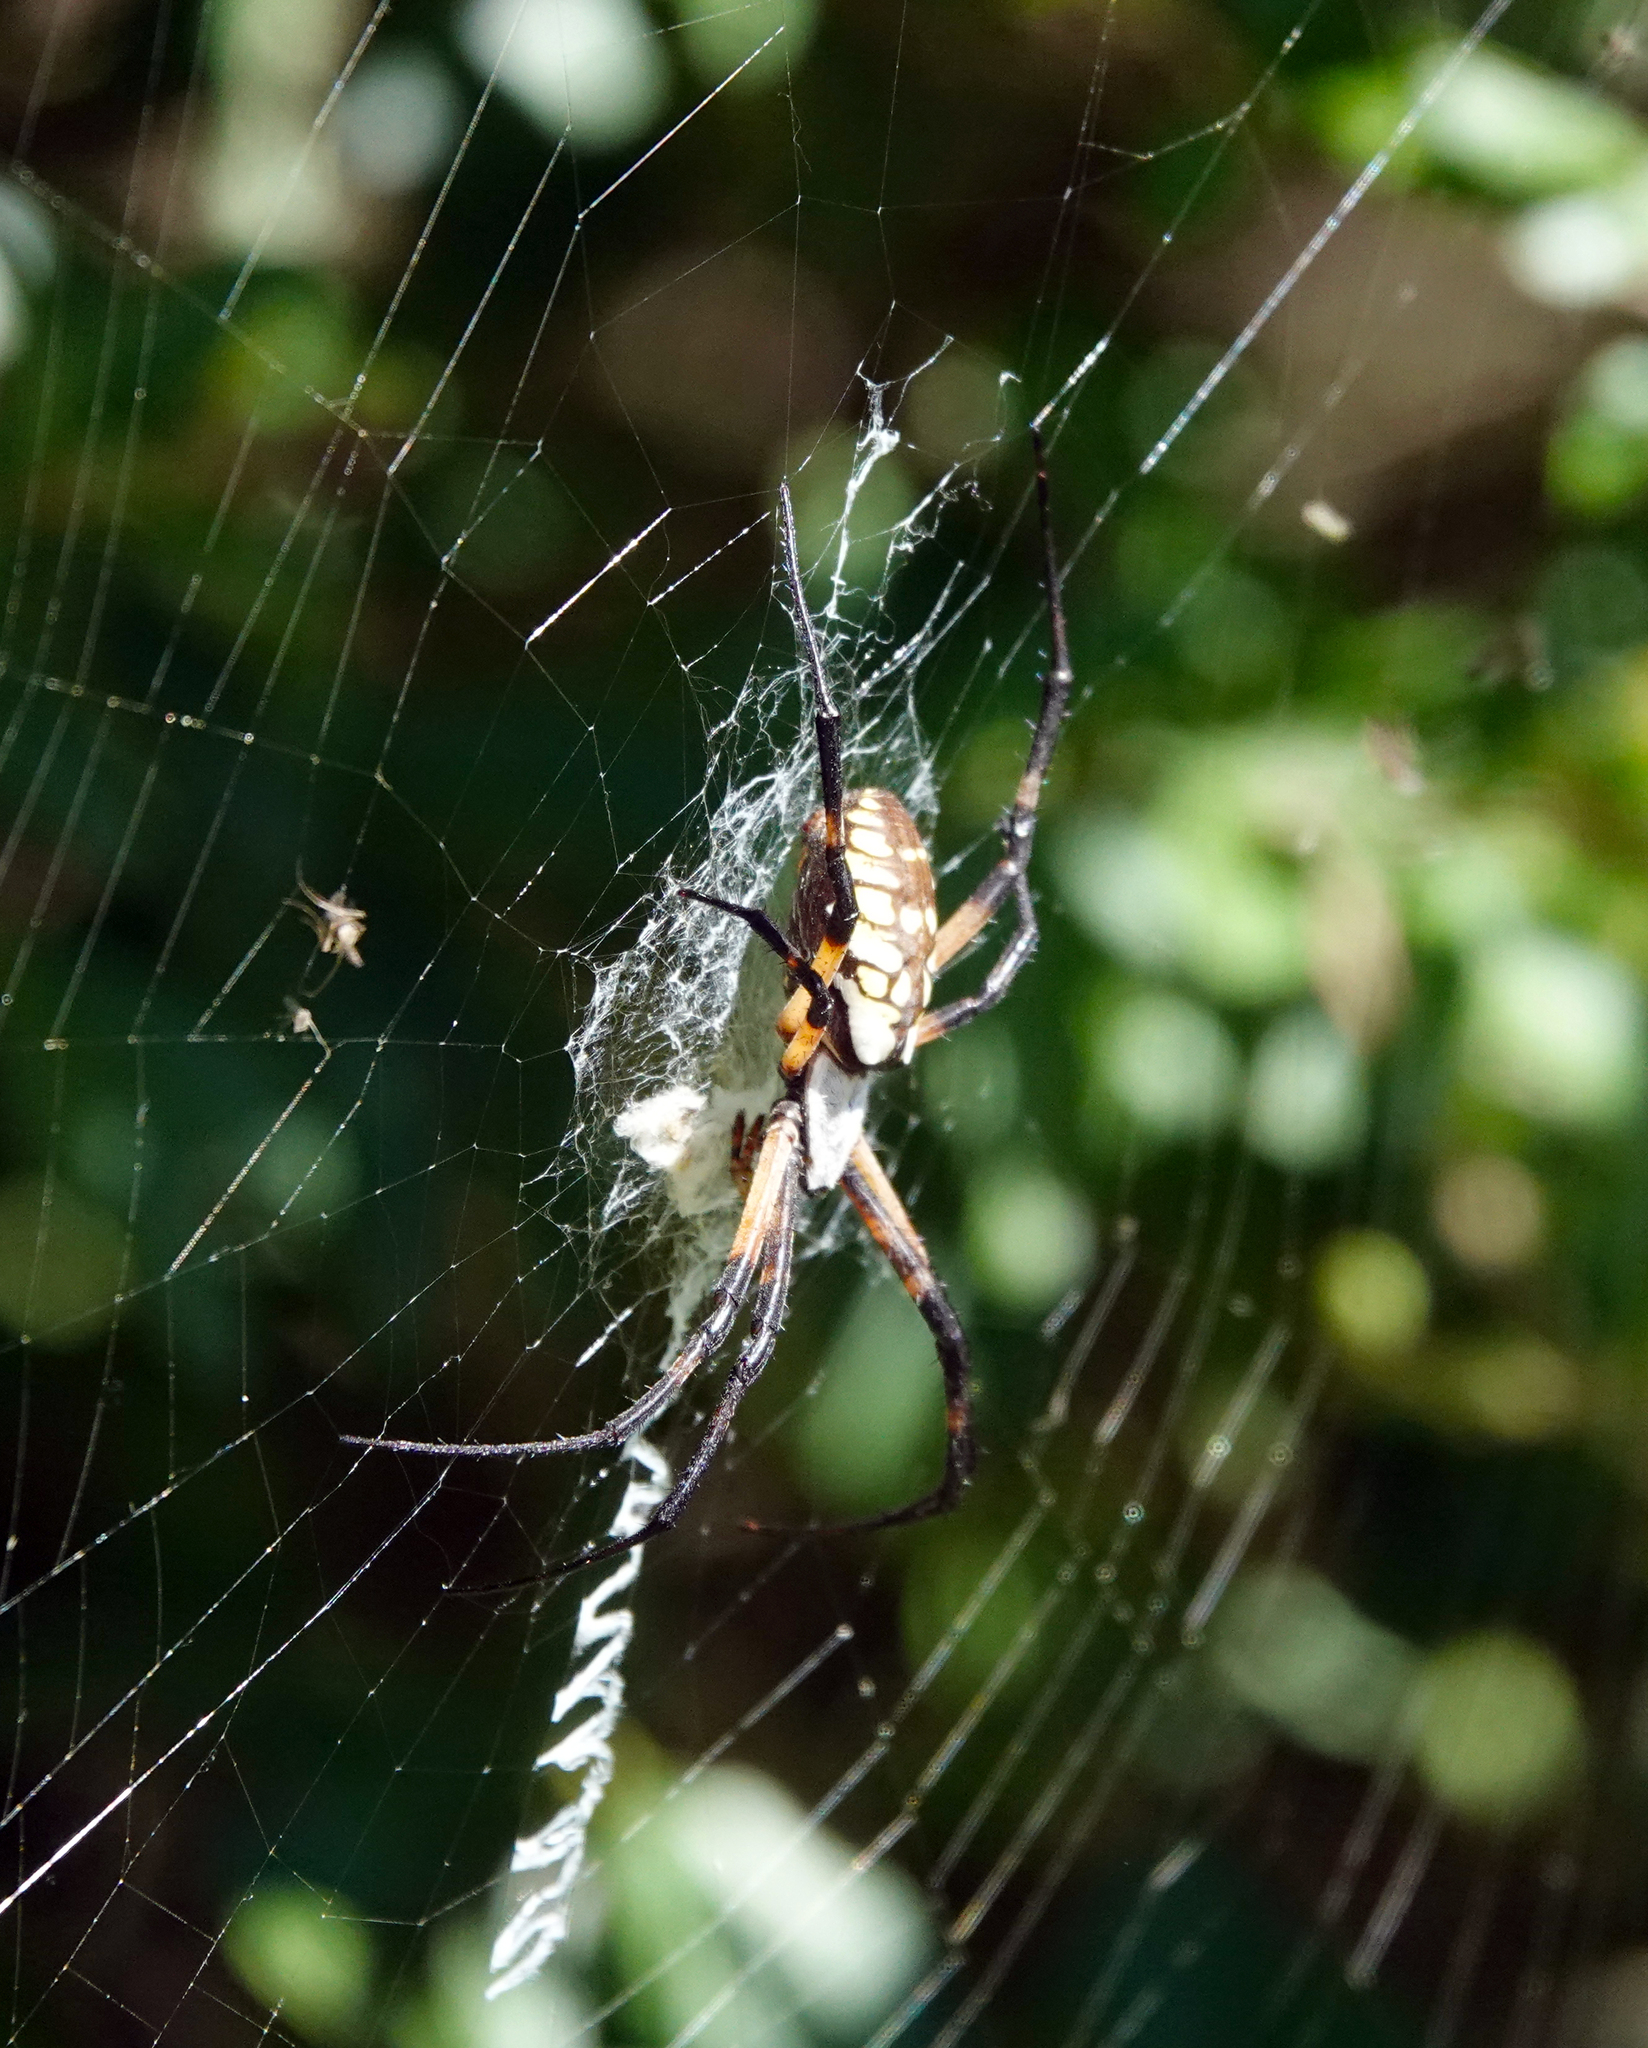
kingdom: Animalia
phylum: Arthropoda
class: Arachnida
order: Araneae
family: Araneidae
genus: Argiope
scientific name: Argiope aurantia
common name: Orb weavers
